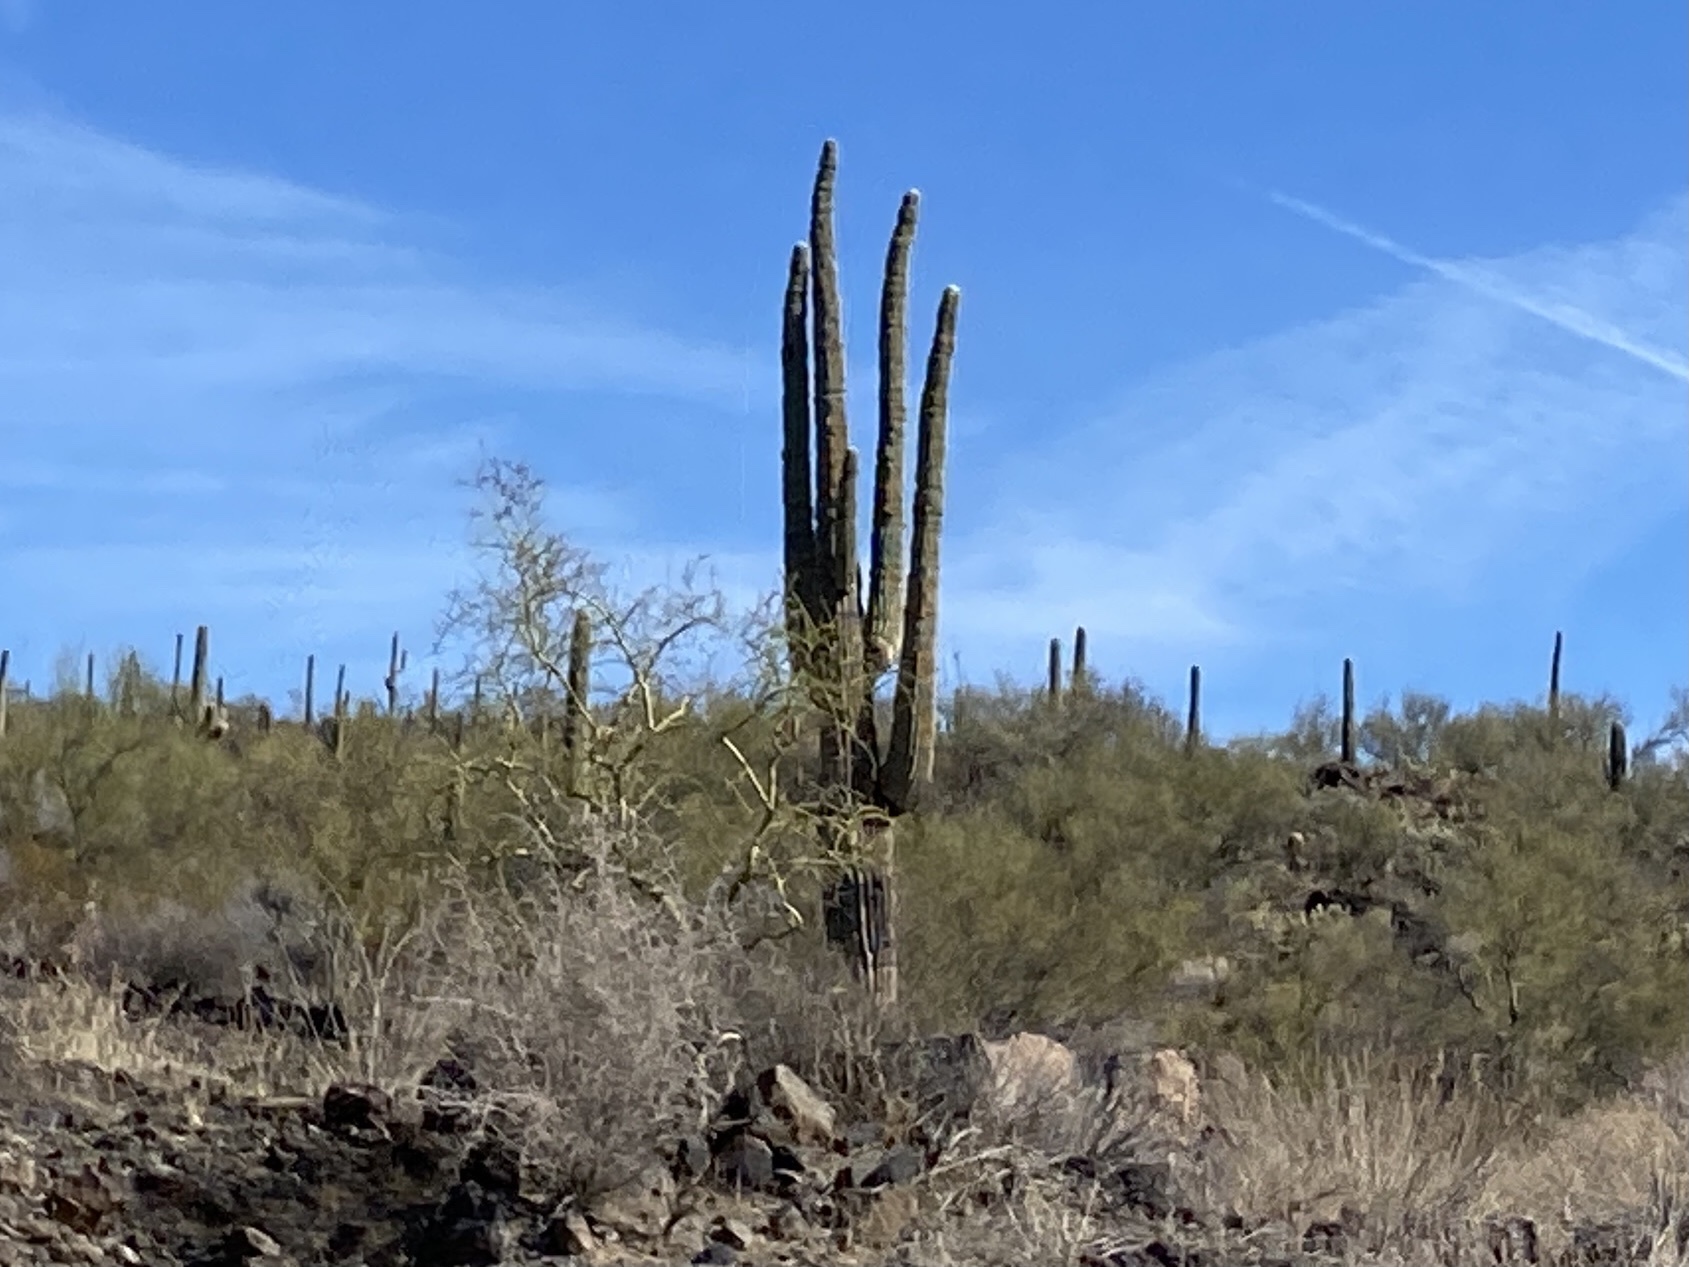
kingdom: Plantae
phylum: Tracheophyta
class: Magnoliopsida
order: Caryophyllales
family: Cactaceae
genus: Carnegiea
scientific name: Carnegiea gigantea
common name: Saguaro
